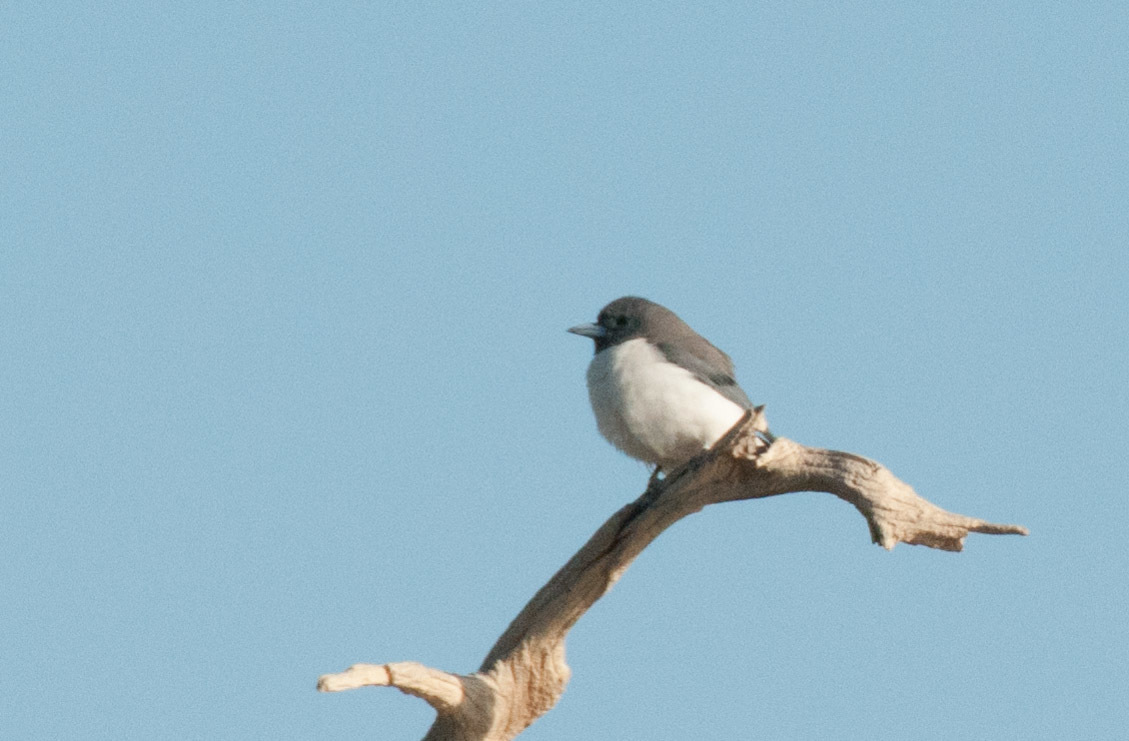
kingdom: Animalia
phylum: Chordata
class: Aves
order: Passeriformes
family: Artamidae
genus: Artamus
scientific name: Artamus leucoryn
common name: White-breasted woodswallow
